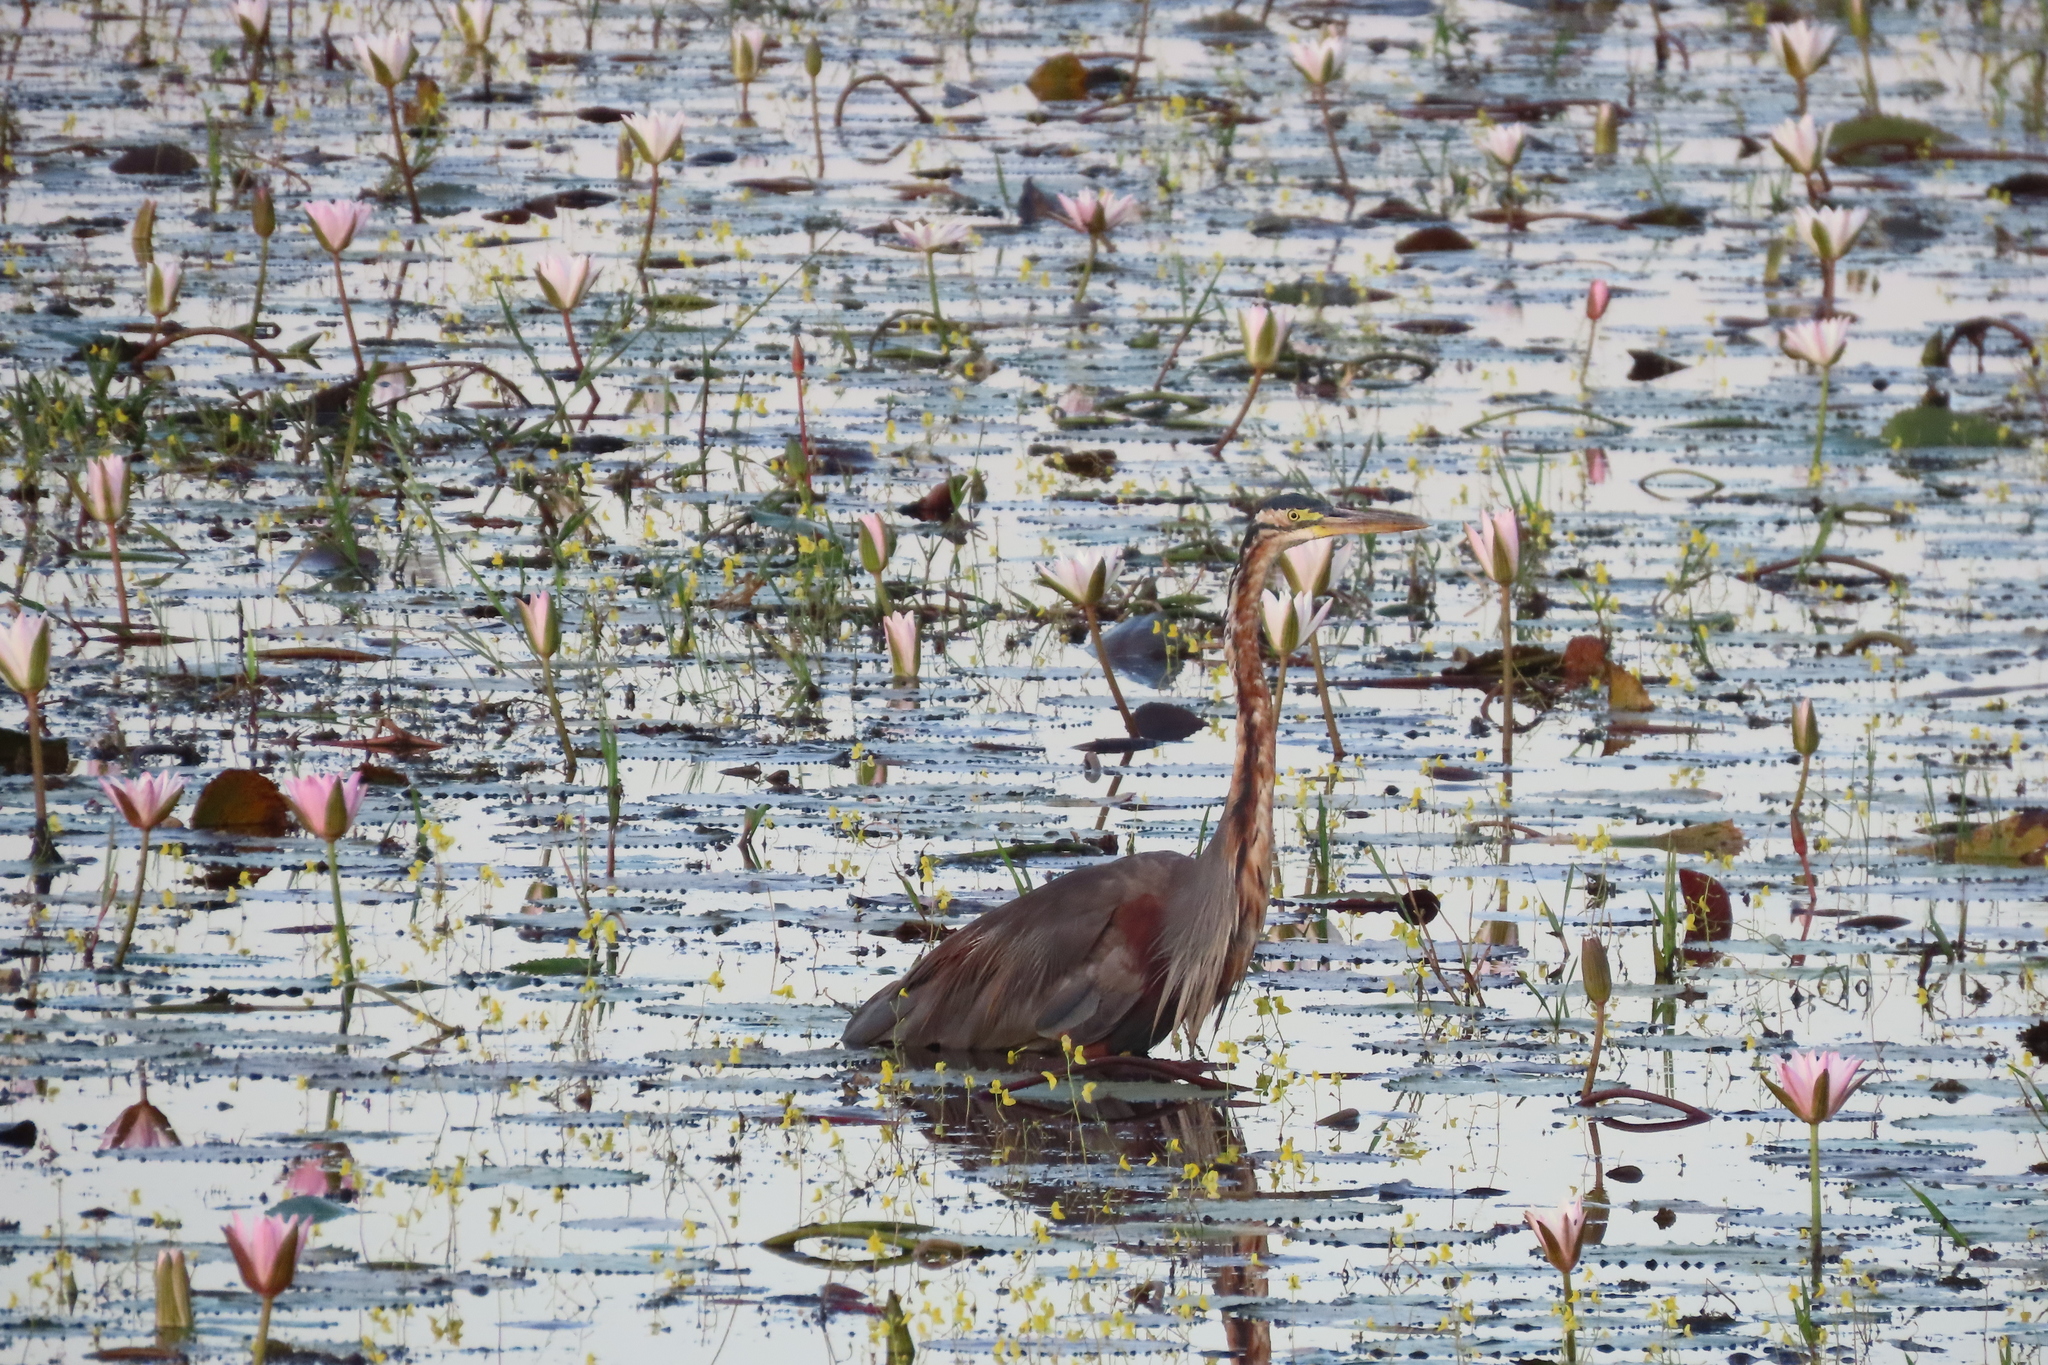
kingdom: Animalia
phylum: Chordata
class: Aves
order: Pelecaniformes
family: Ardeidae
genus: Ardea
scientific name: Ardea purpurea
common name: Purple heron
